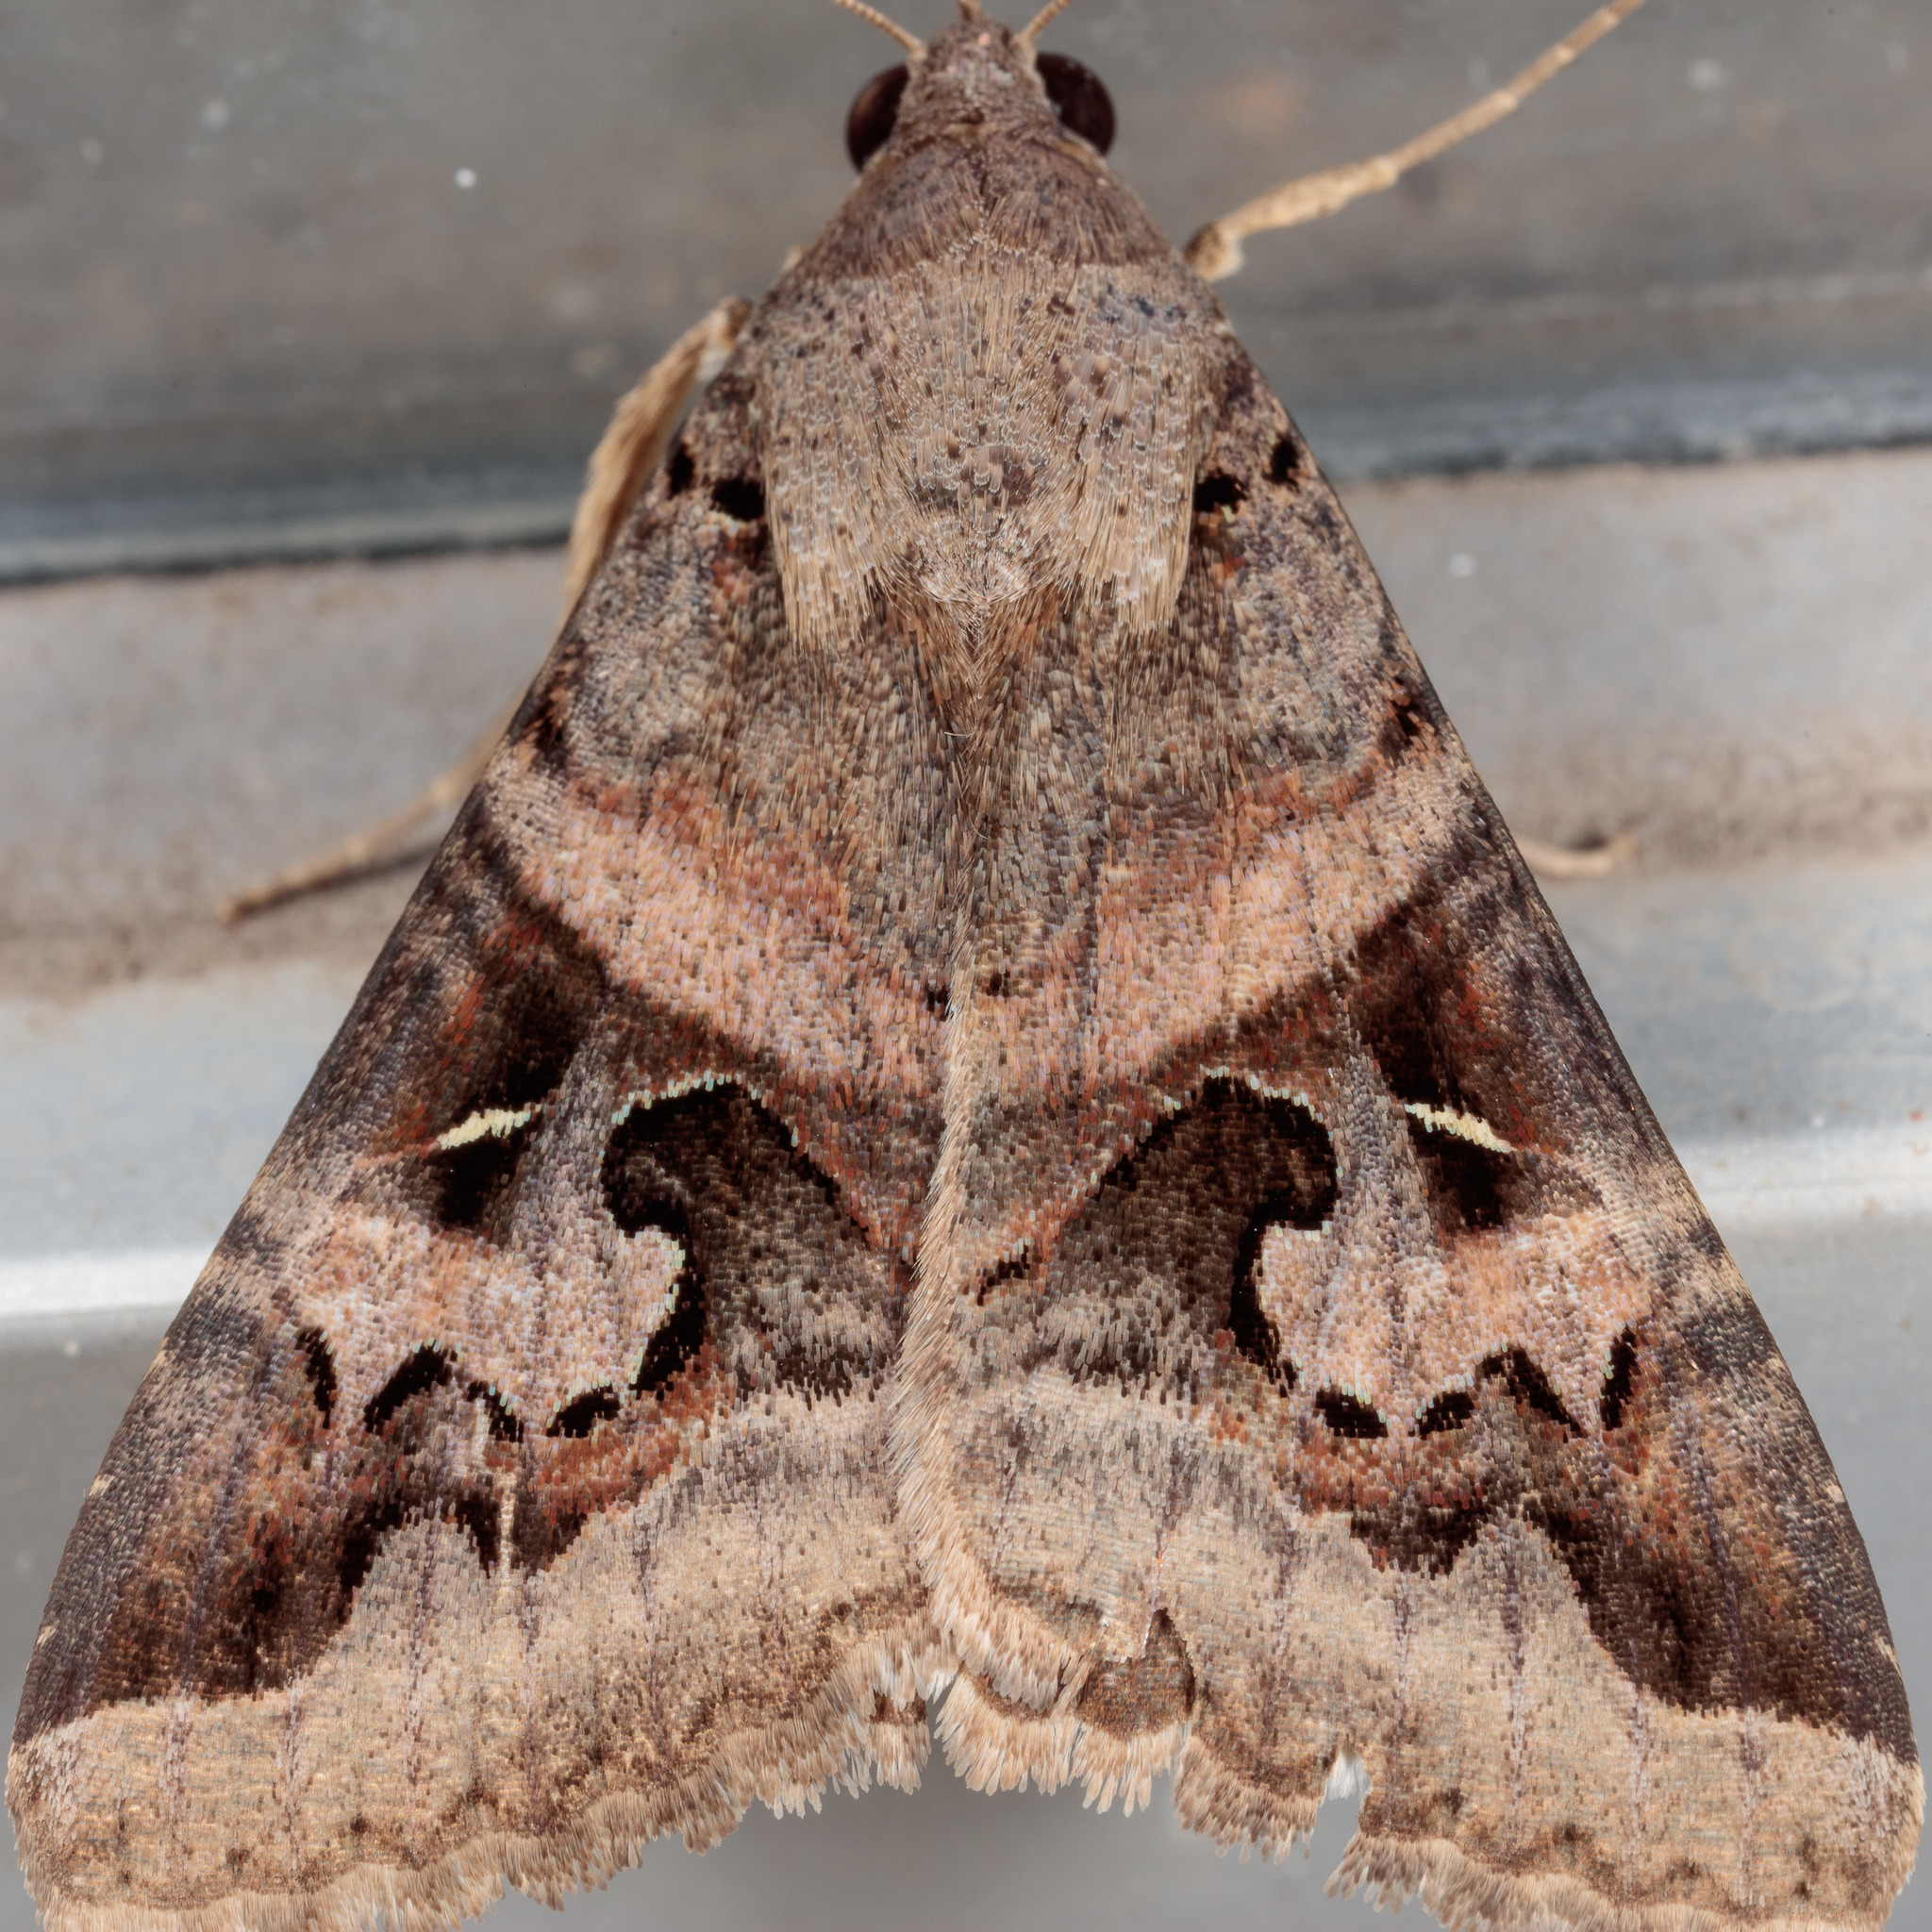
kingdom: Animalia
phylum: Arthropoda
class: Insecta
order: Lepidoptera
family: Erebidae
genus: Melipotis
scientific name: Melipotis indomita
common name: Moth
